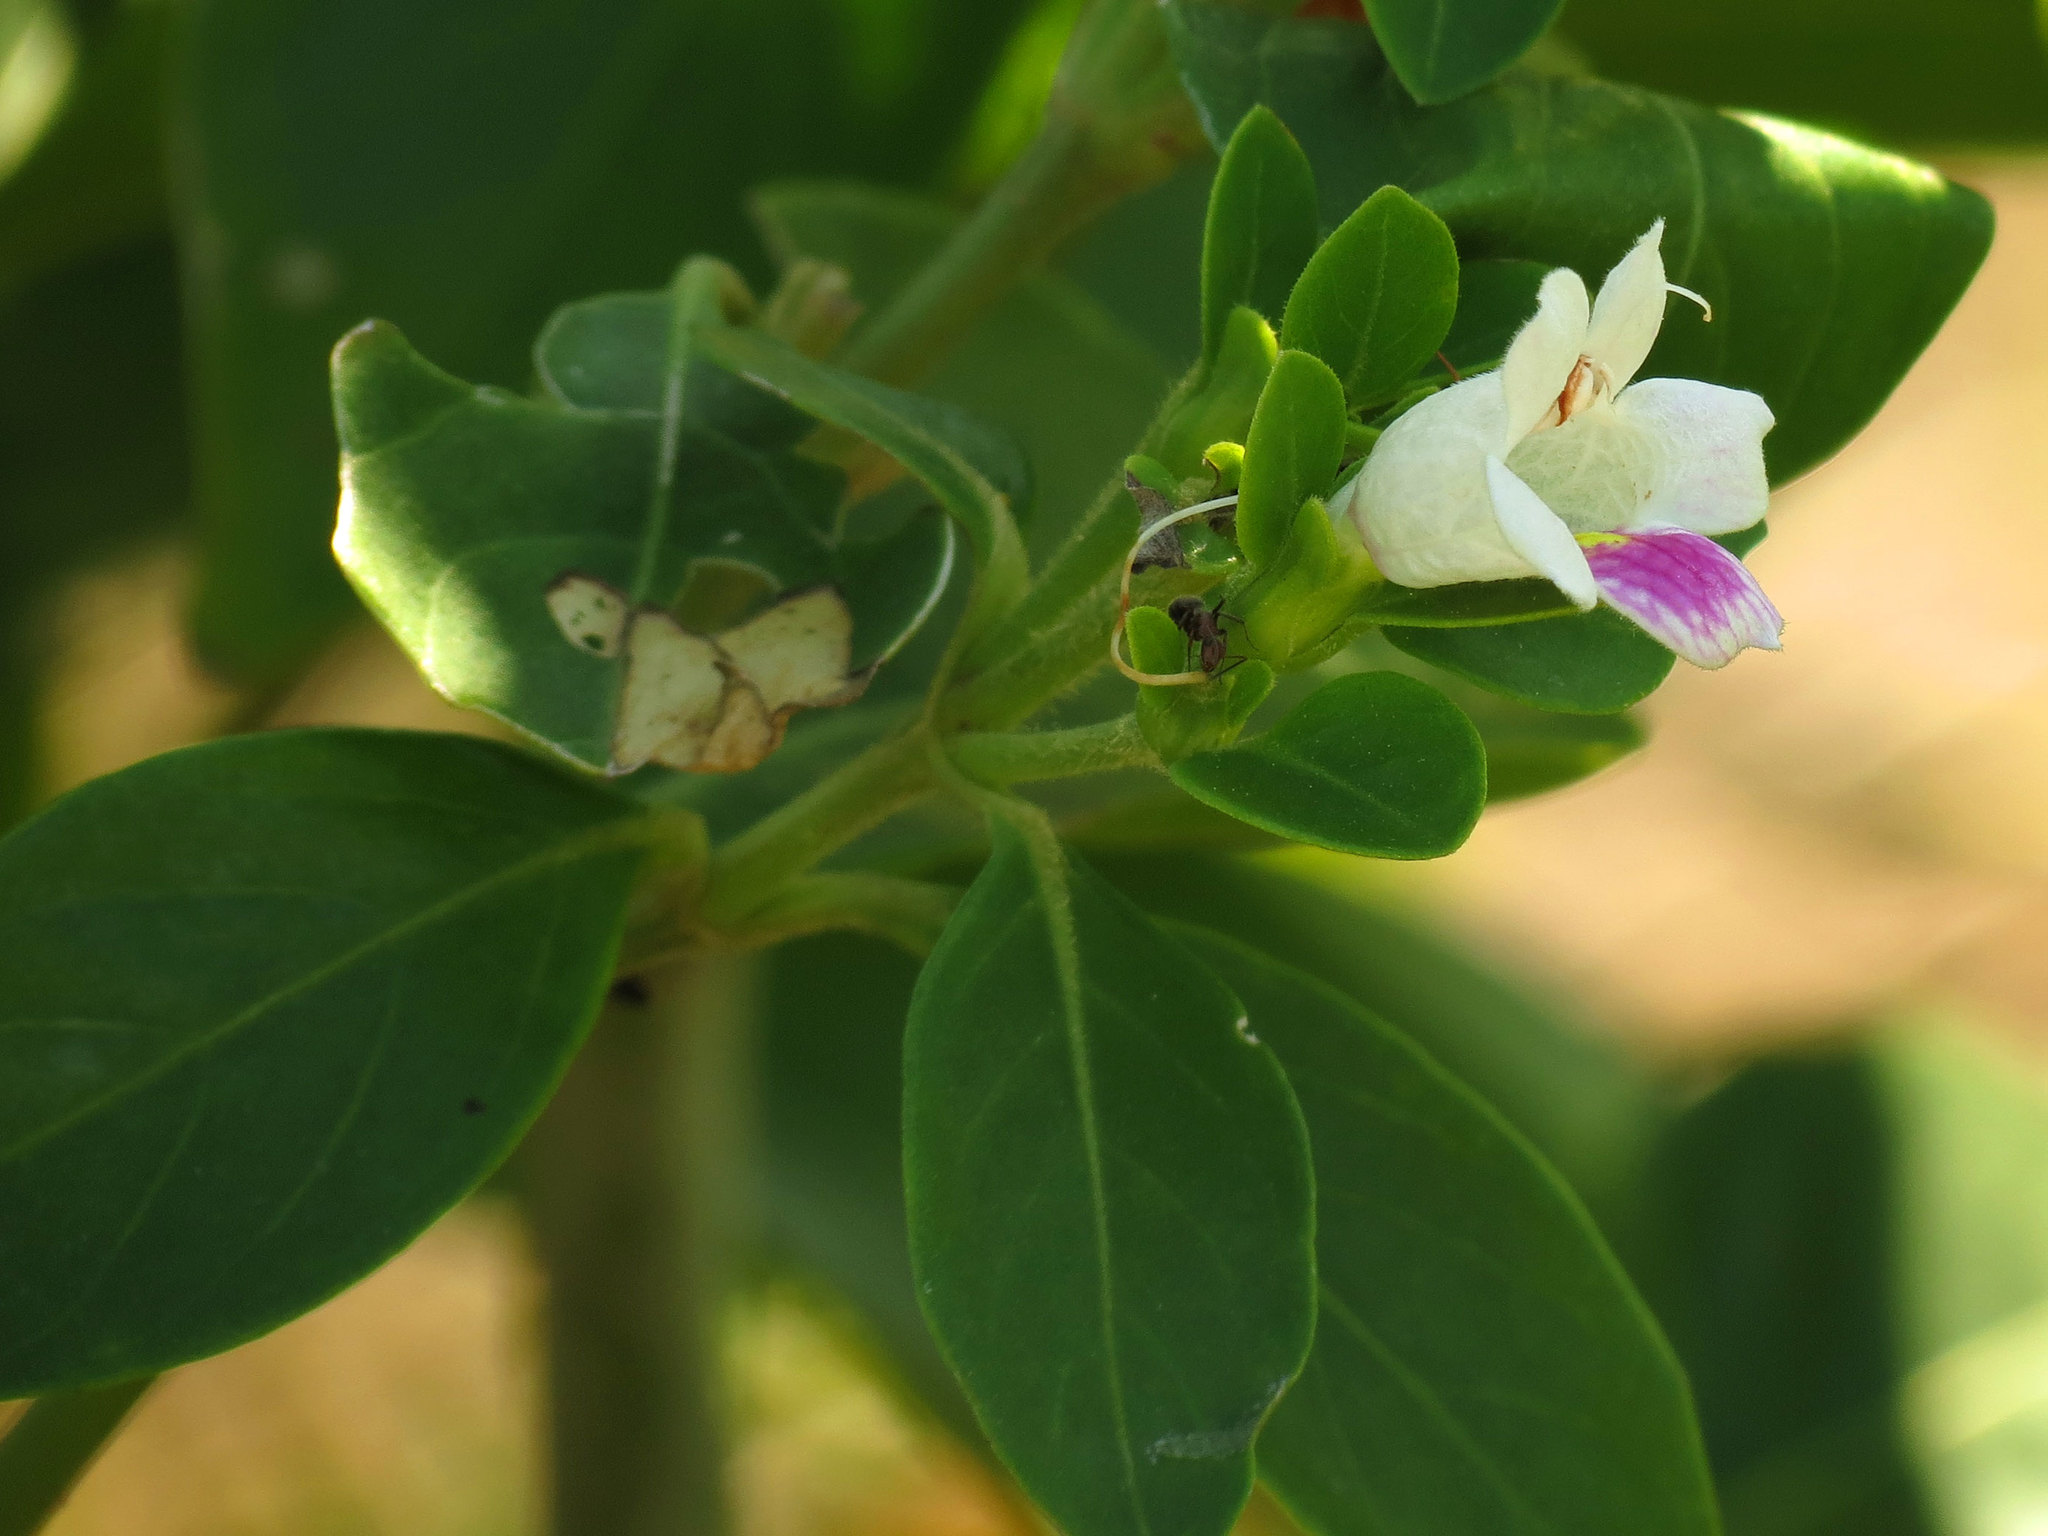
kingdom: Plantae
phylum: Tracheophyta
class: Magnoliopsida
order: Lamiales
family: Acanthaceae
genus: Bravaisia
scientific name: Bravaisia berlandieriana
